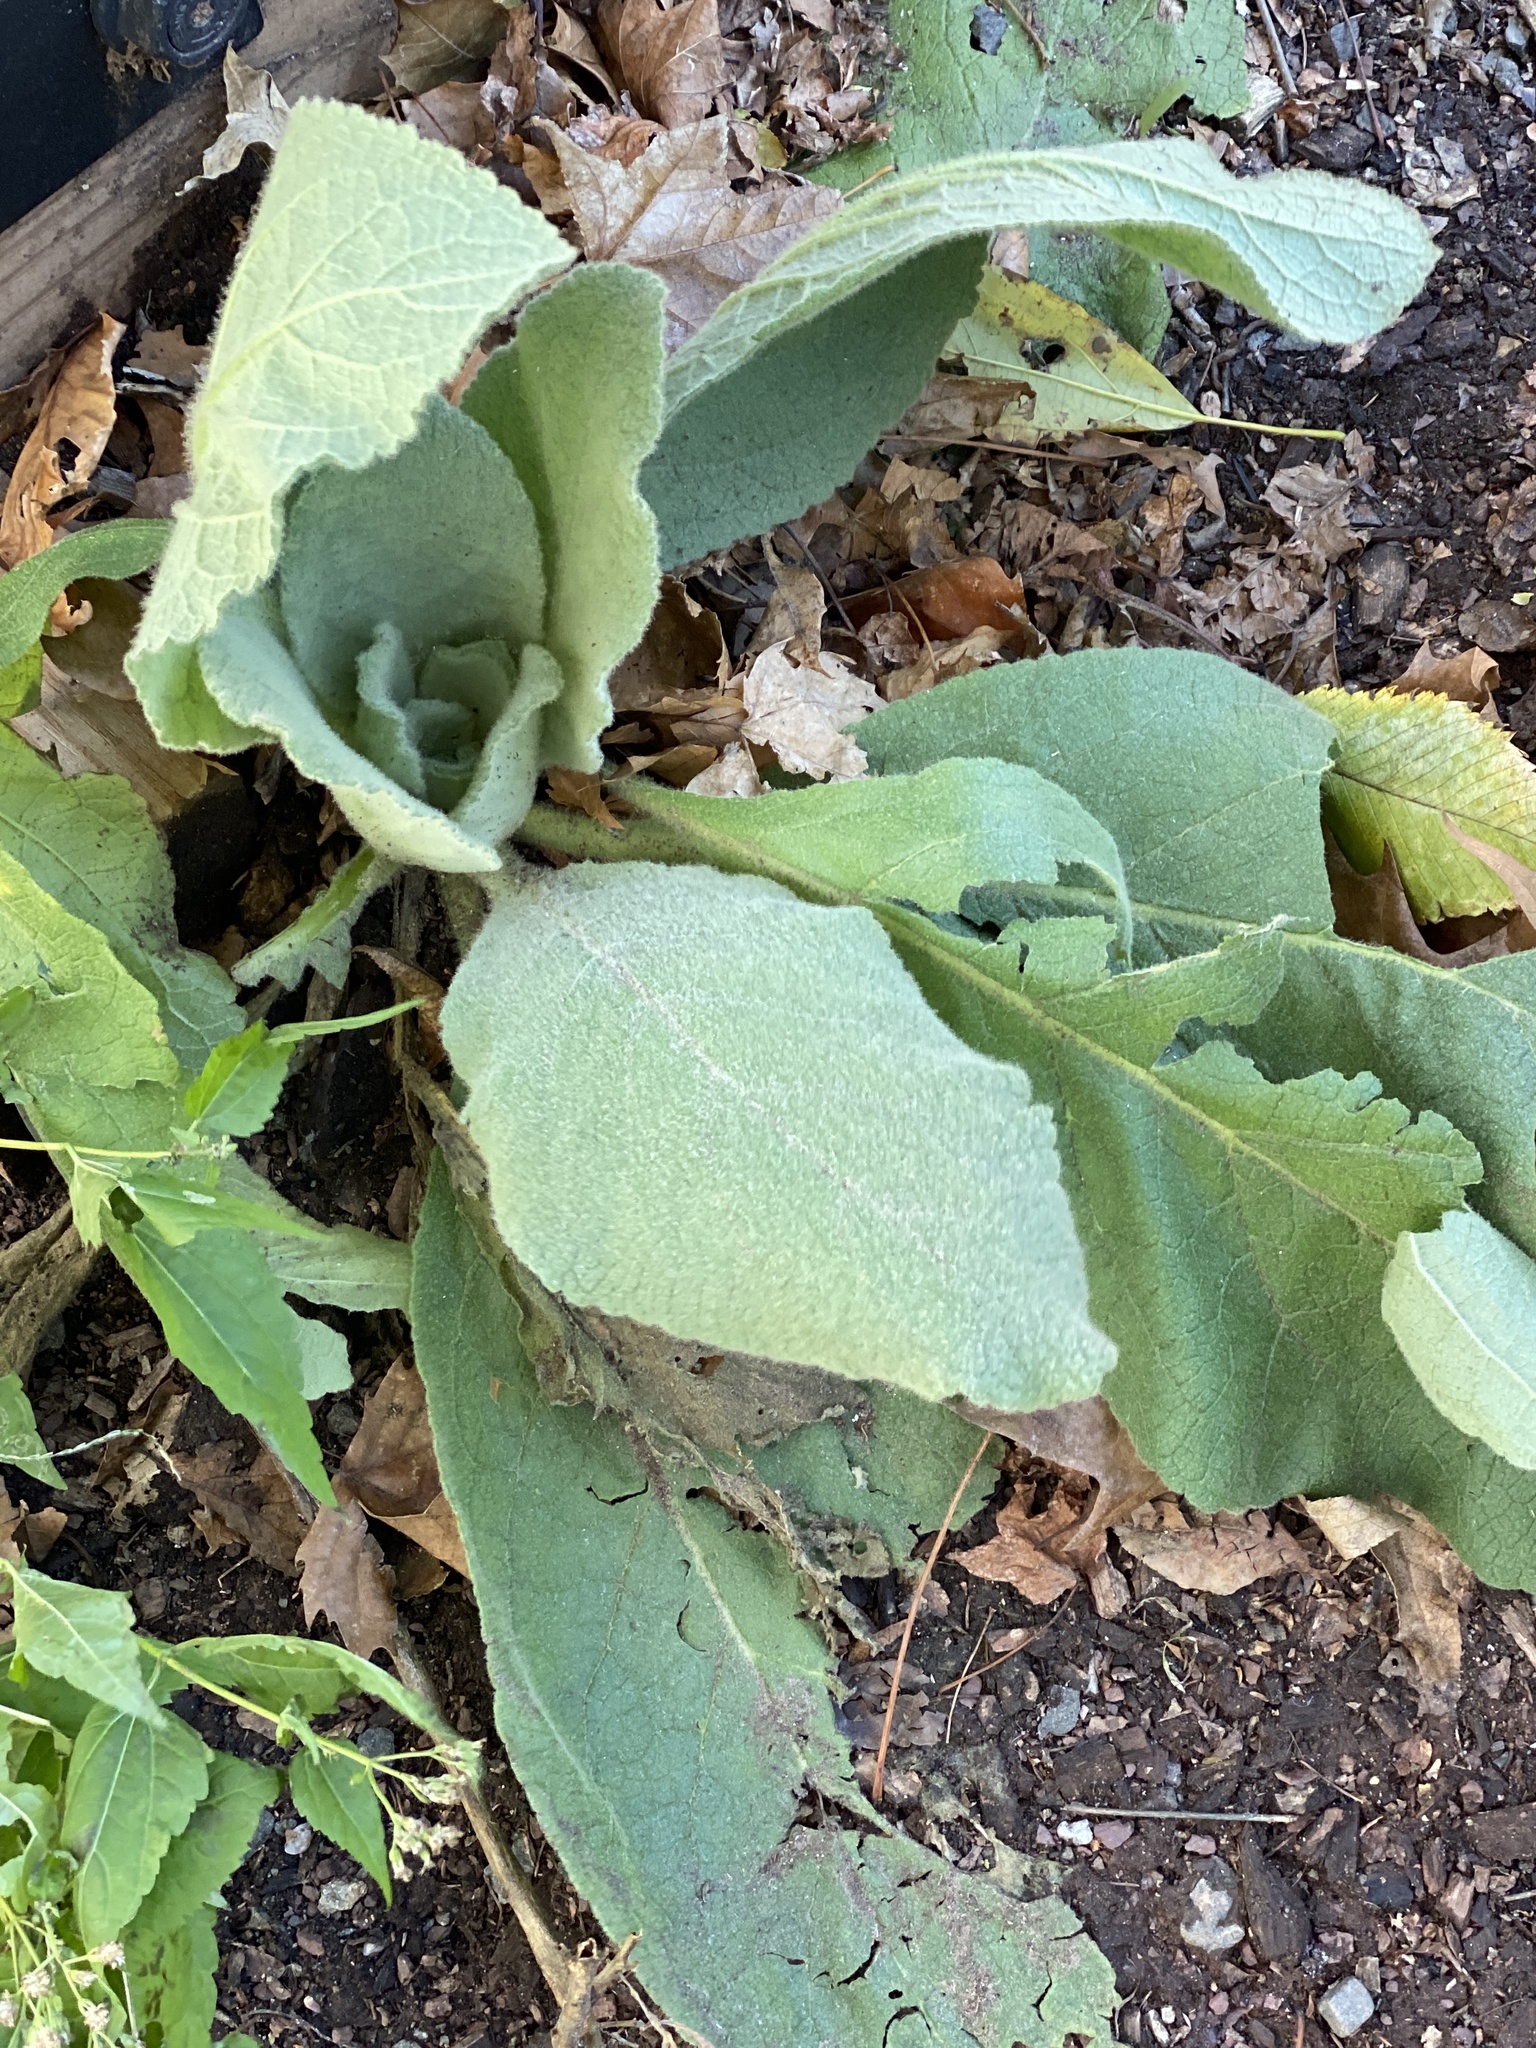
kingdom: Plantae
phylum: Tracheophyta
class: Magnoliopsida
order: Lamiales
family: Scrophulariaceae
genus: Verbascum
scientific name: Verbascum thapsus
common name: Common mullein
